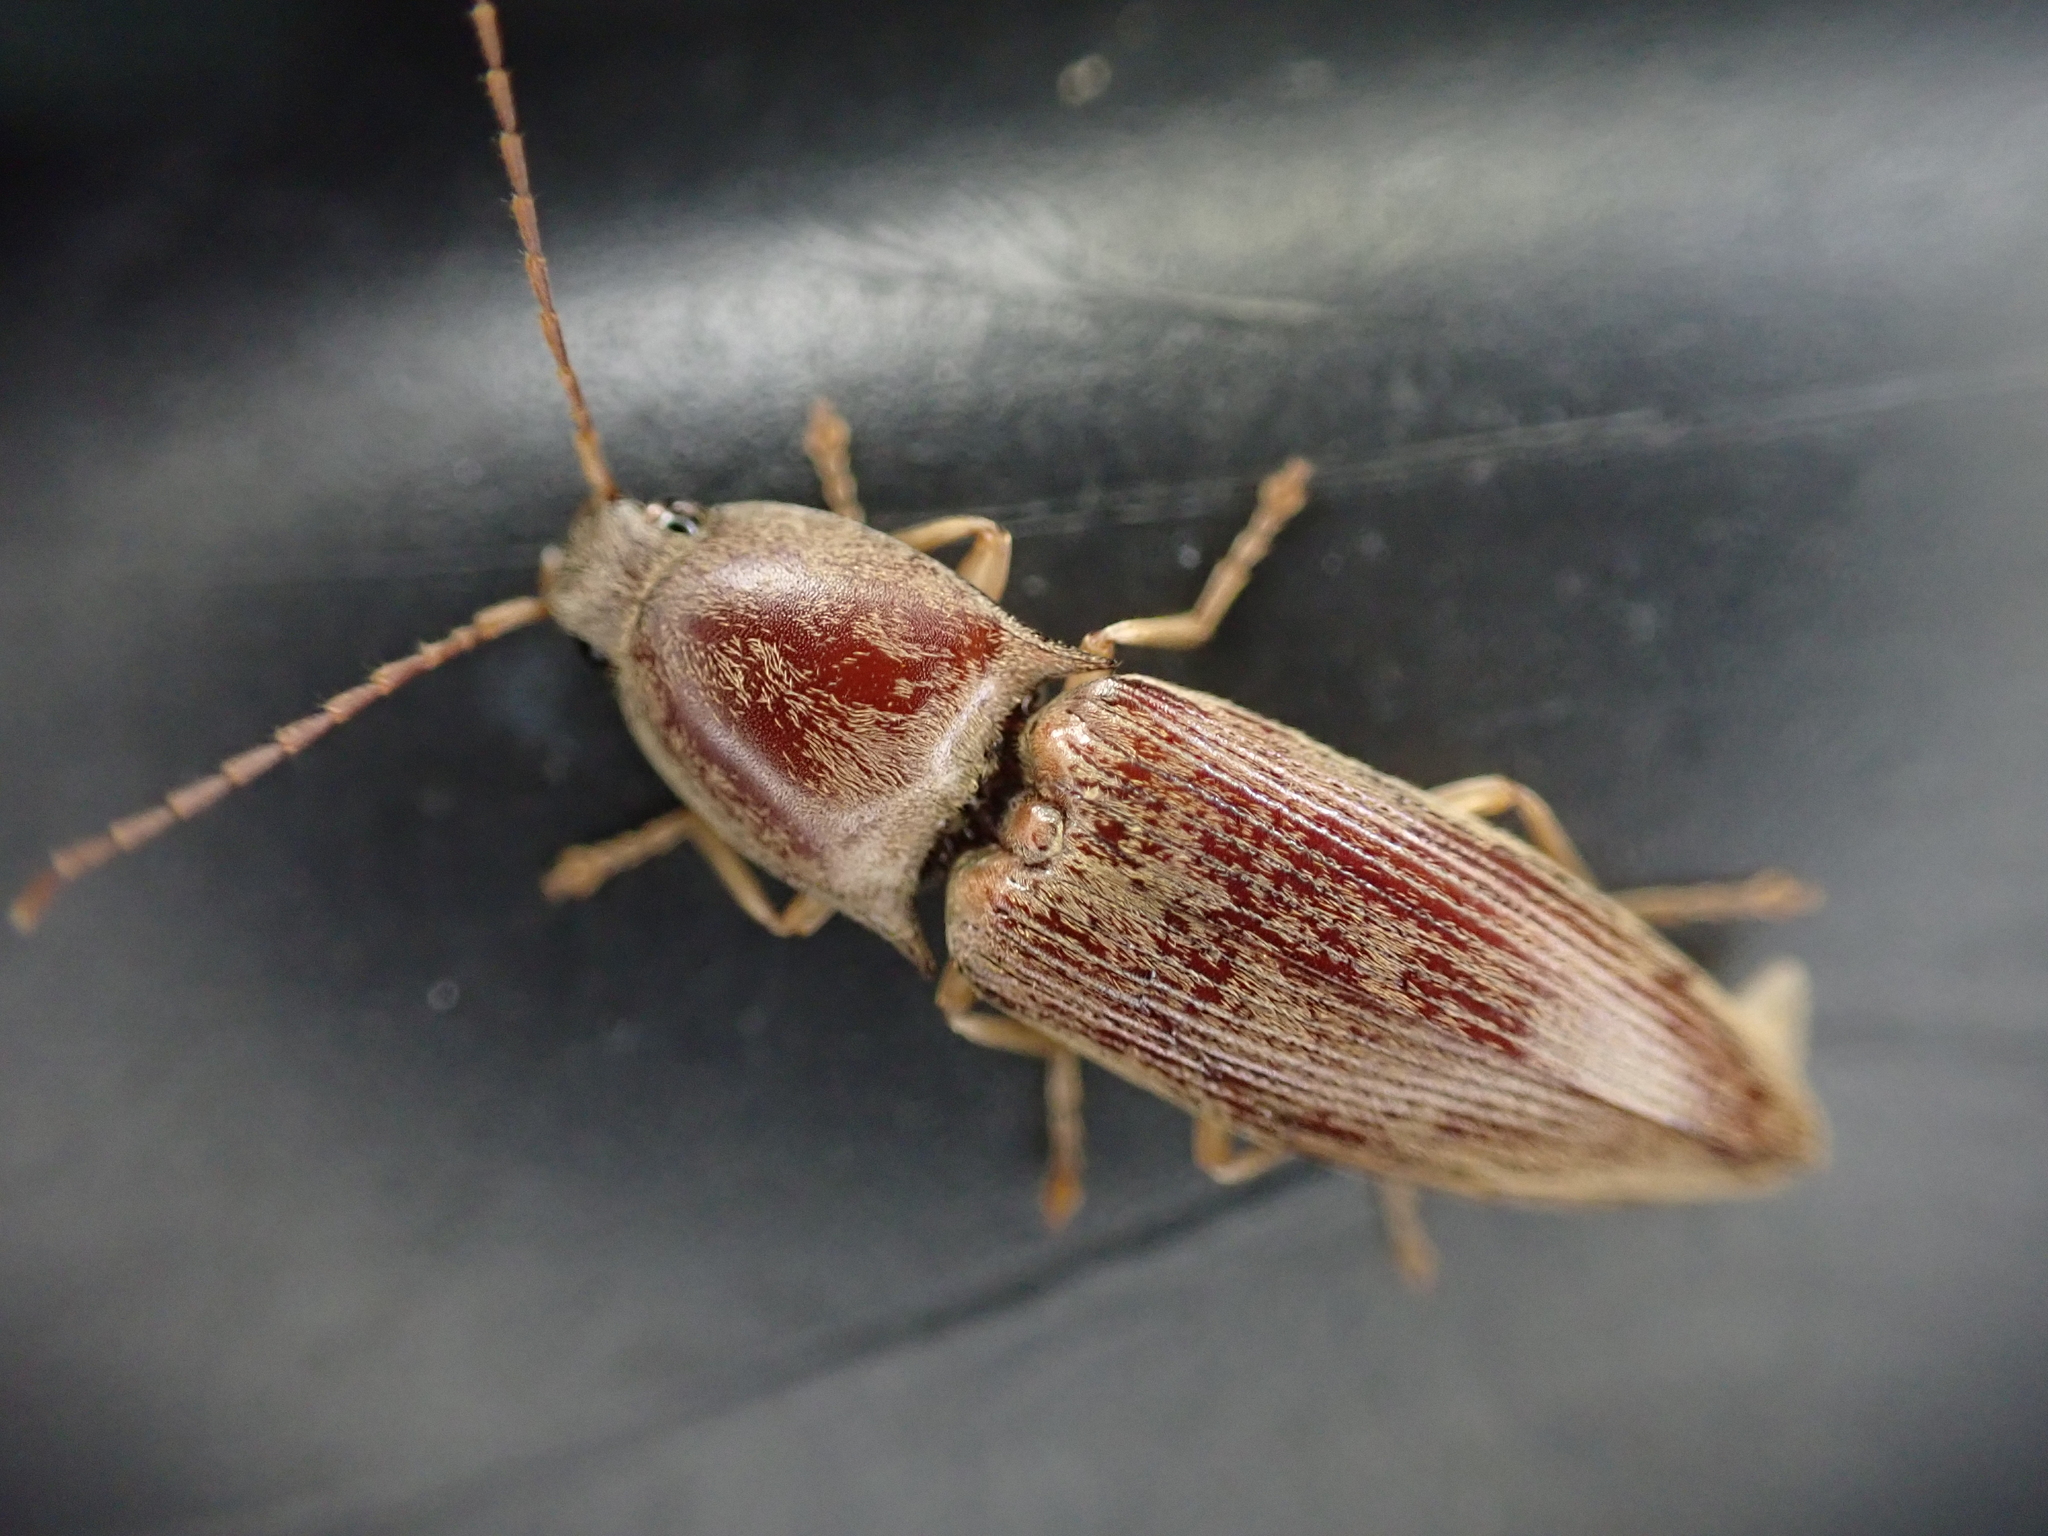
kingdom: Animalia
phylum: Arthropoda
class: Insecta
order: Coleoptera
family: Elateridae
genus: Monocrepidius
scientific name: Monocrepidius lividus
